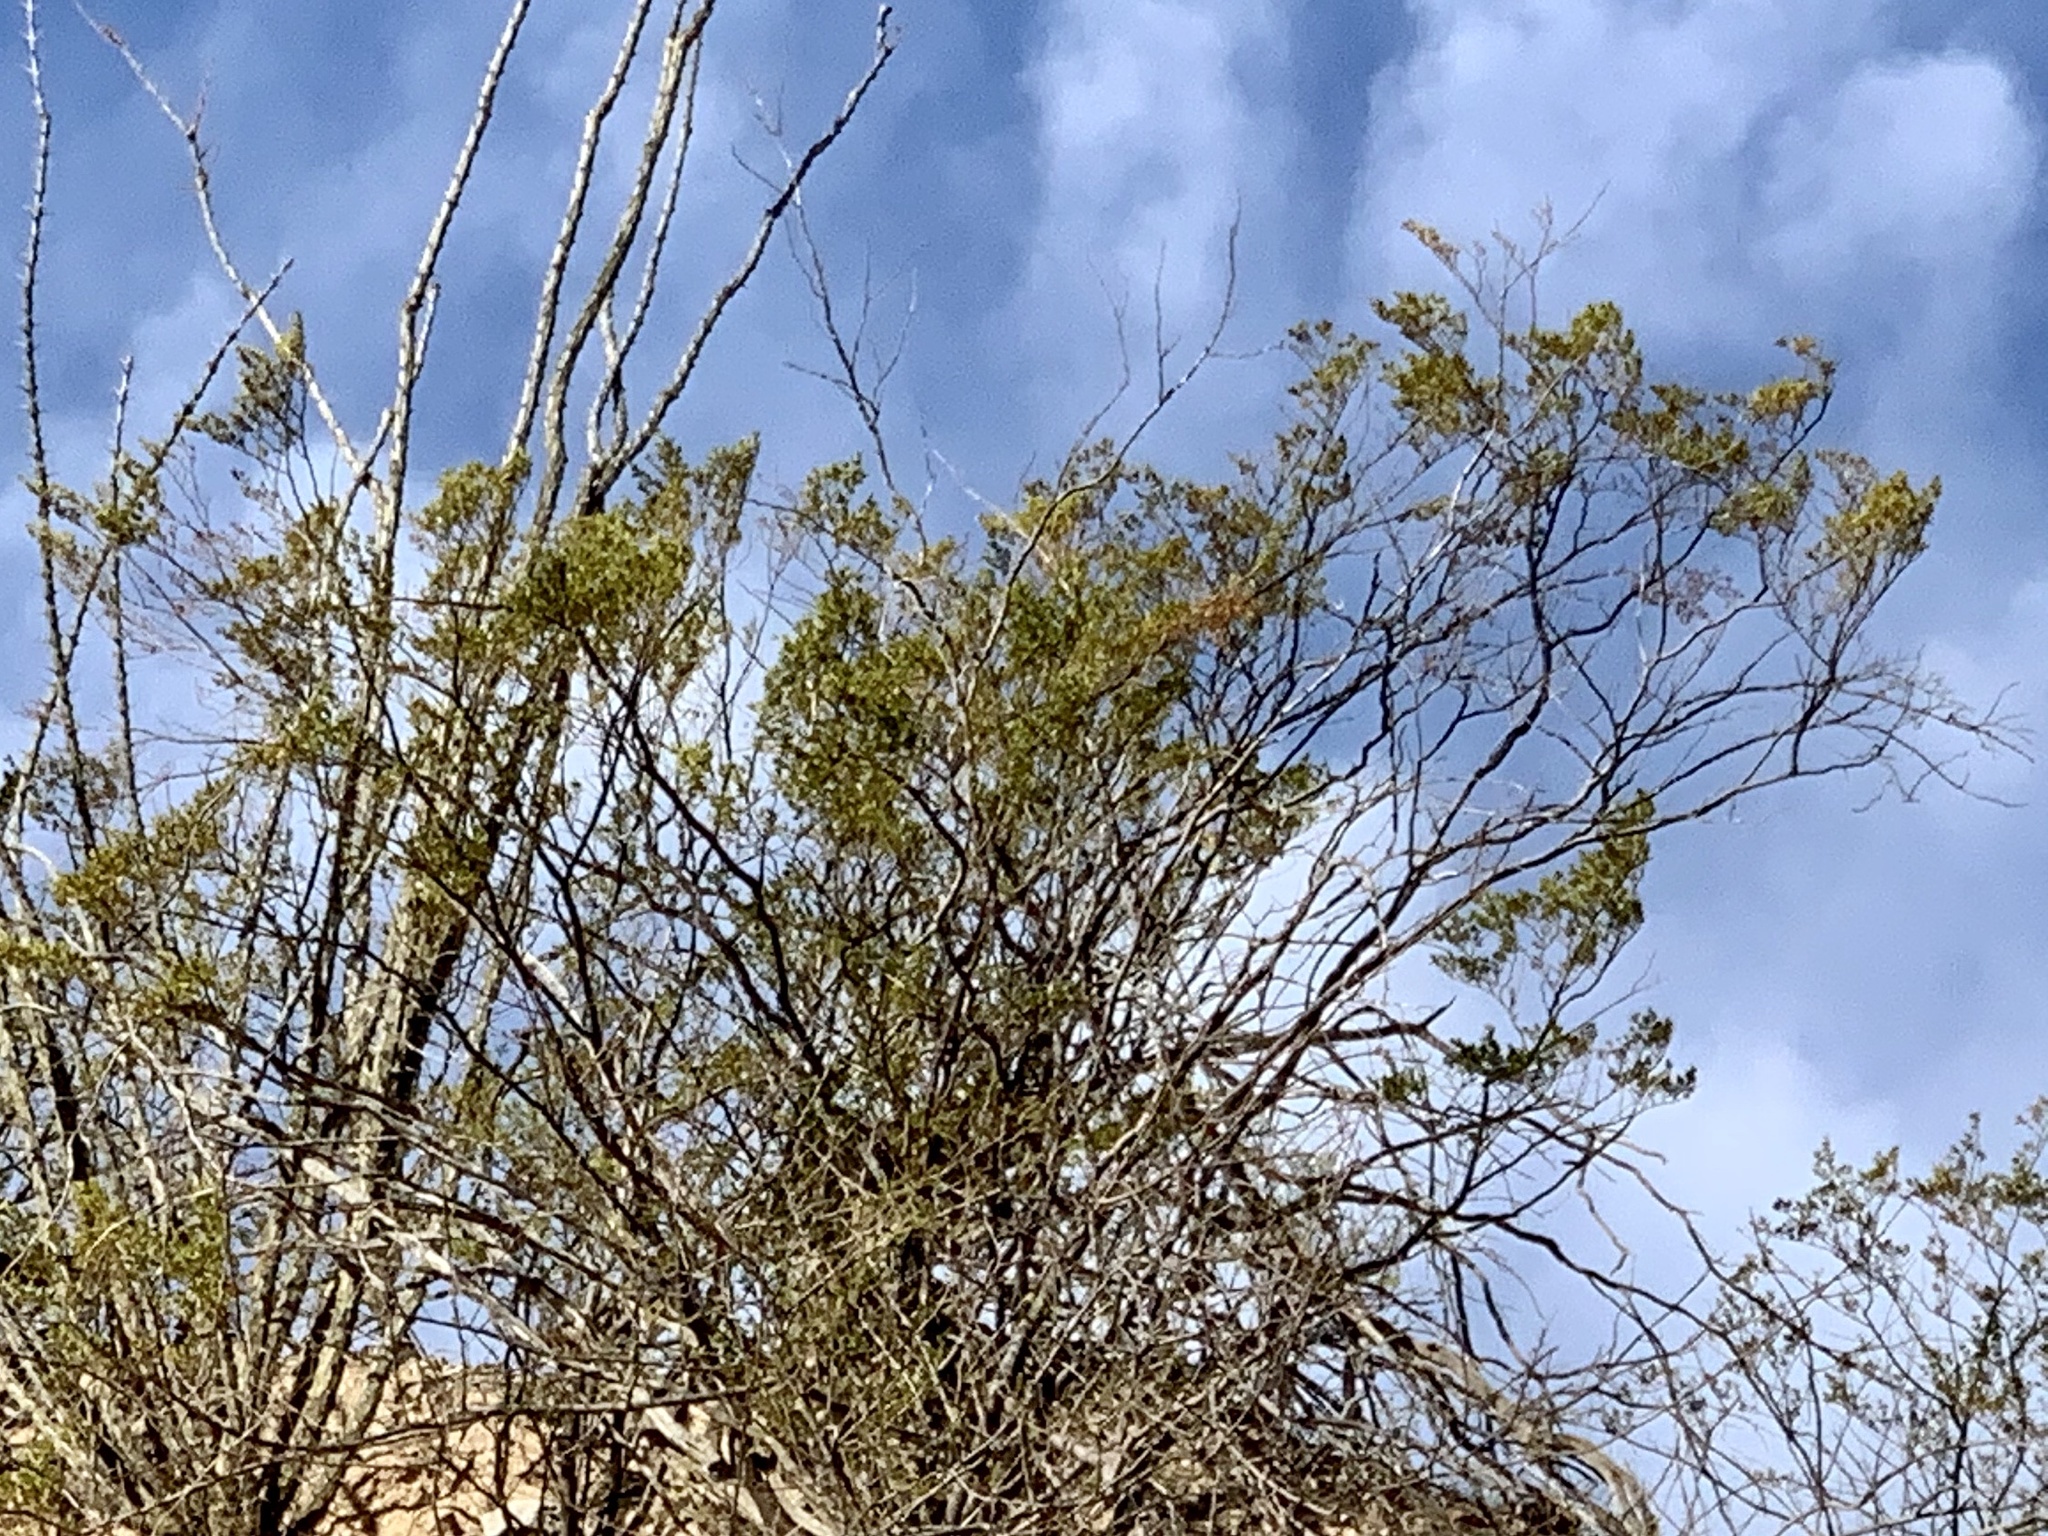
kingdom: Plantae
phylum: Tracheophyta
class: Magnoliopsida
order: Zygophyllales
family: Zygophyllaceae
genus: Larrea
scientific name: Larrea tridentata
